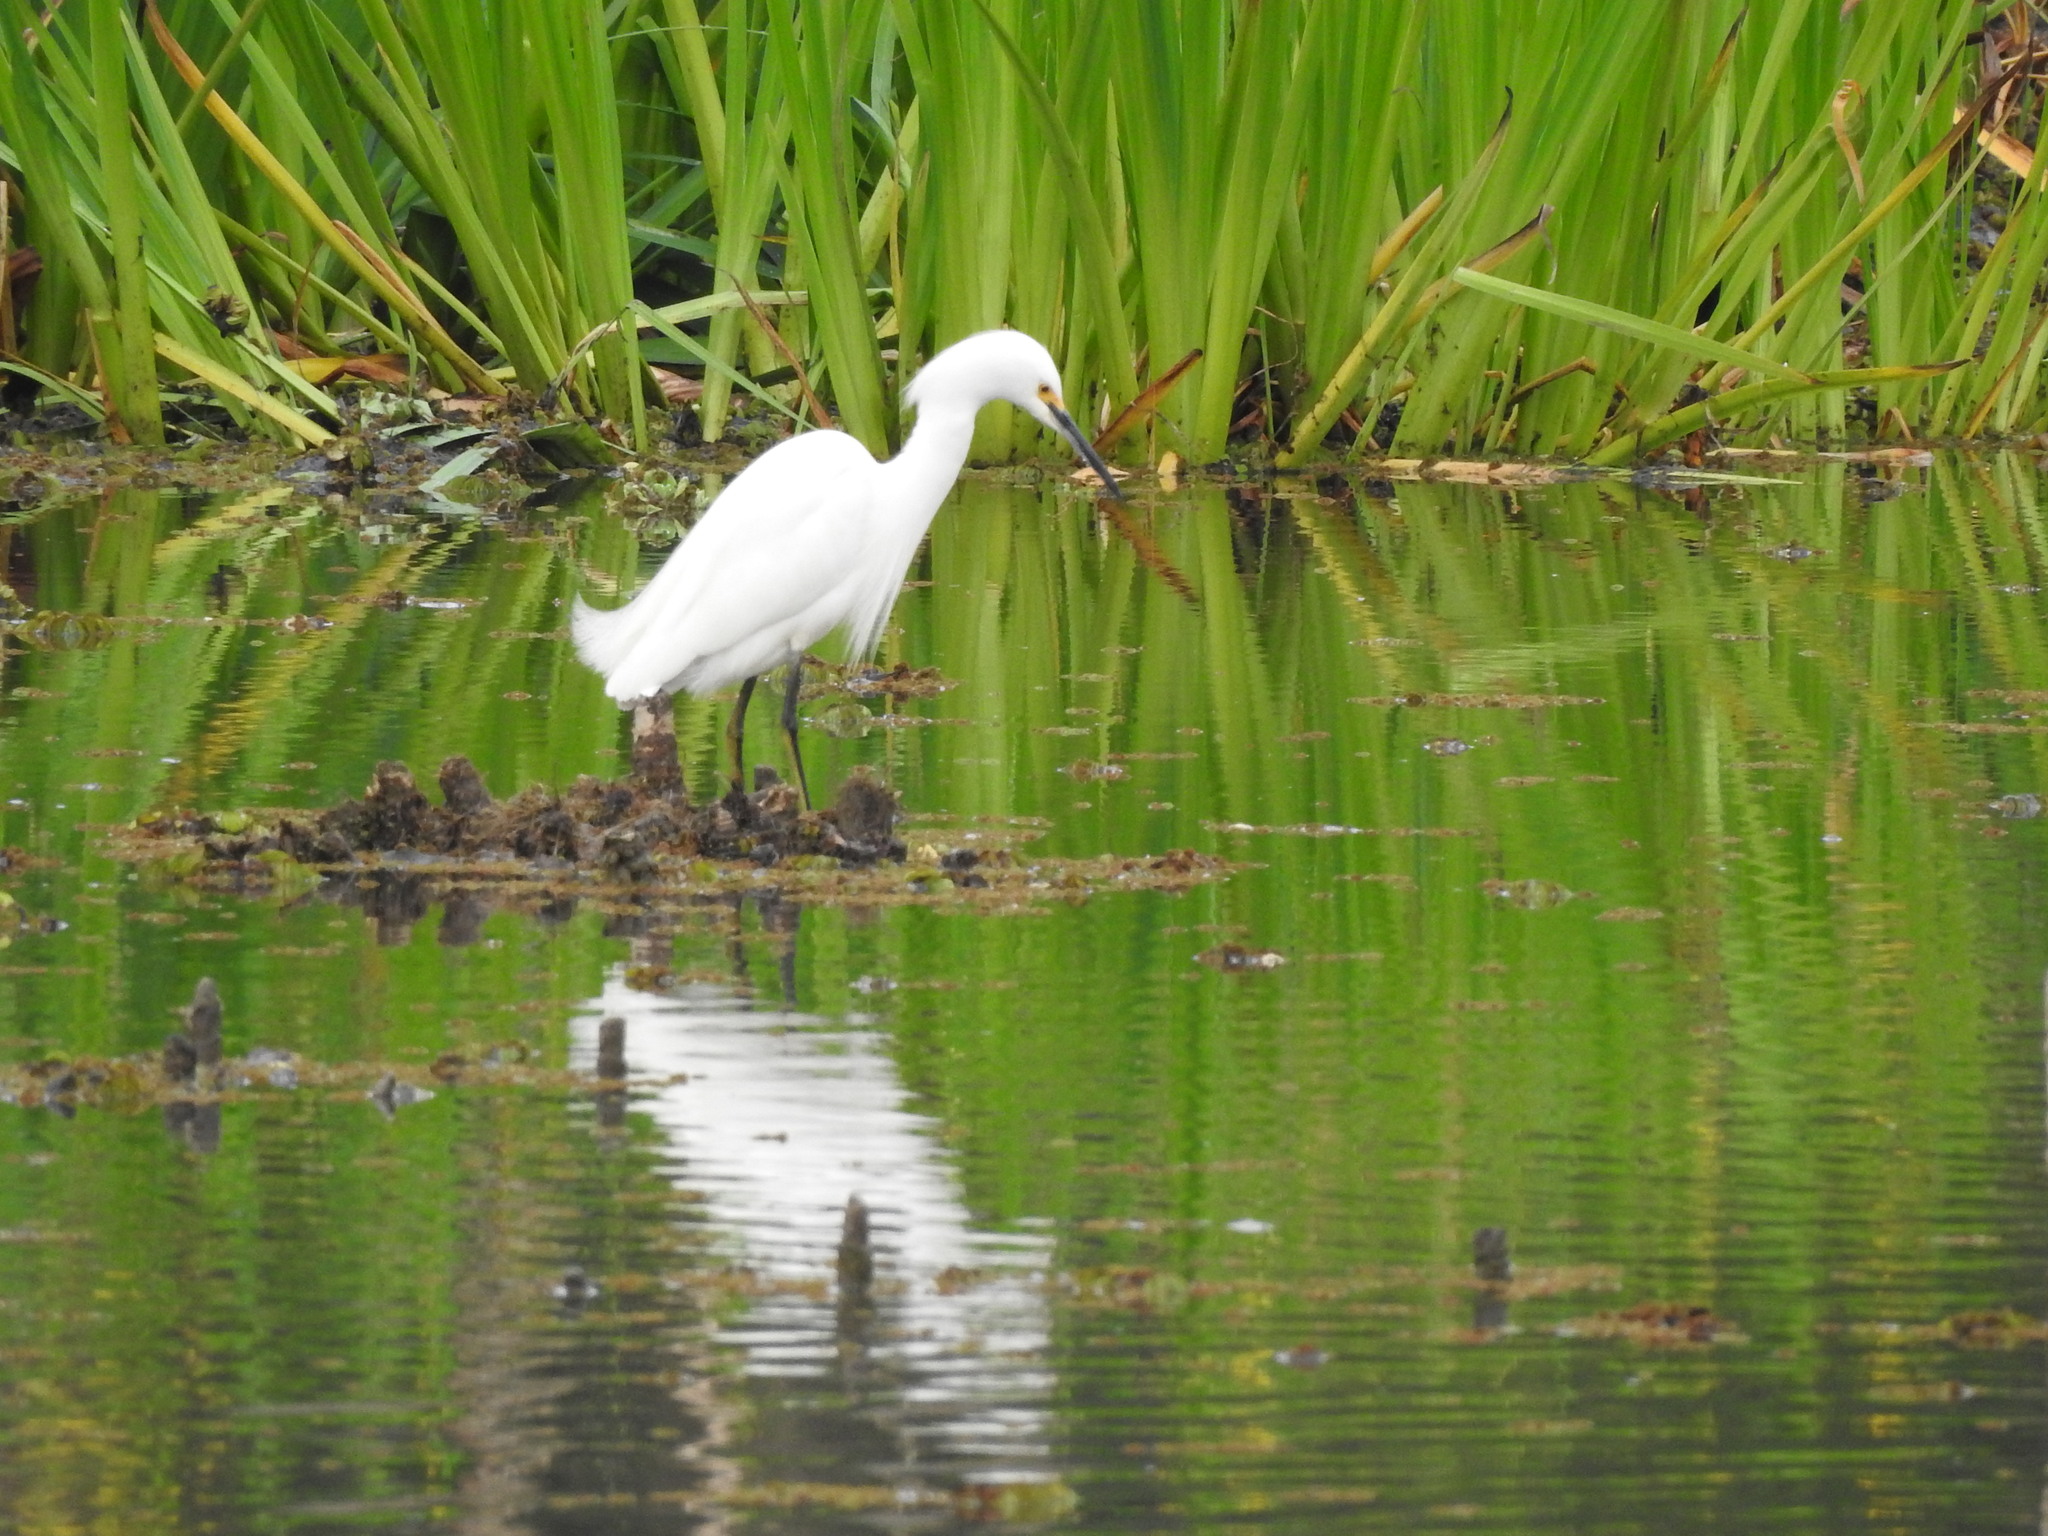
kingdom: Animalia
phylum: Chordata
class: Aves
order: Pelecaniformes
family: Ardeidae
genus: Egretta
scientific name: Egretta thula
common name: Snowy egret
